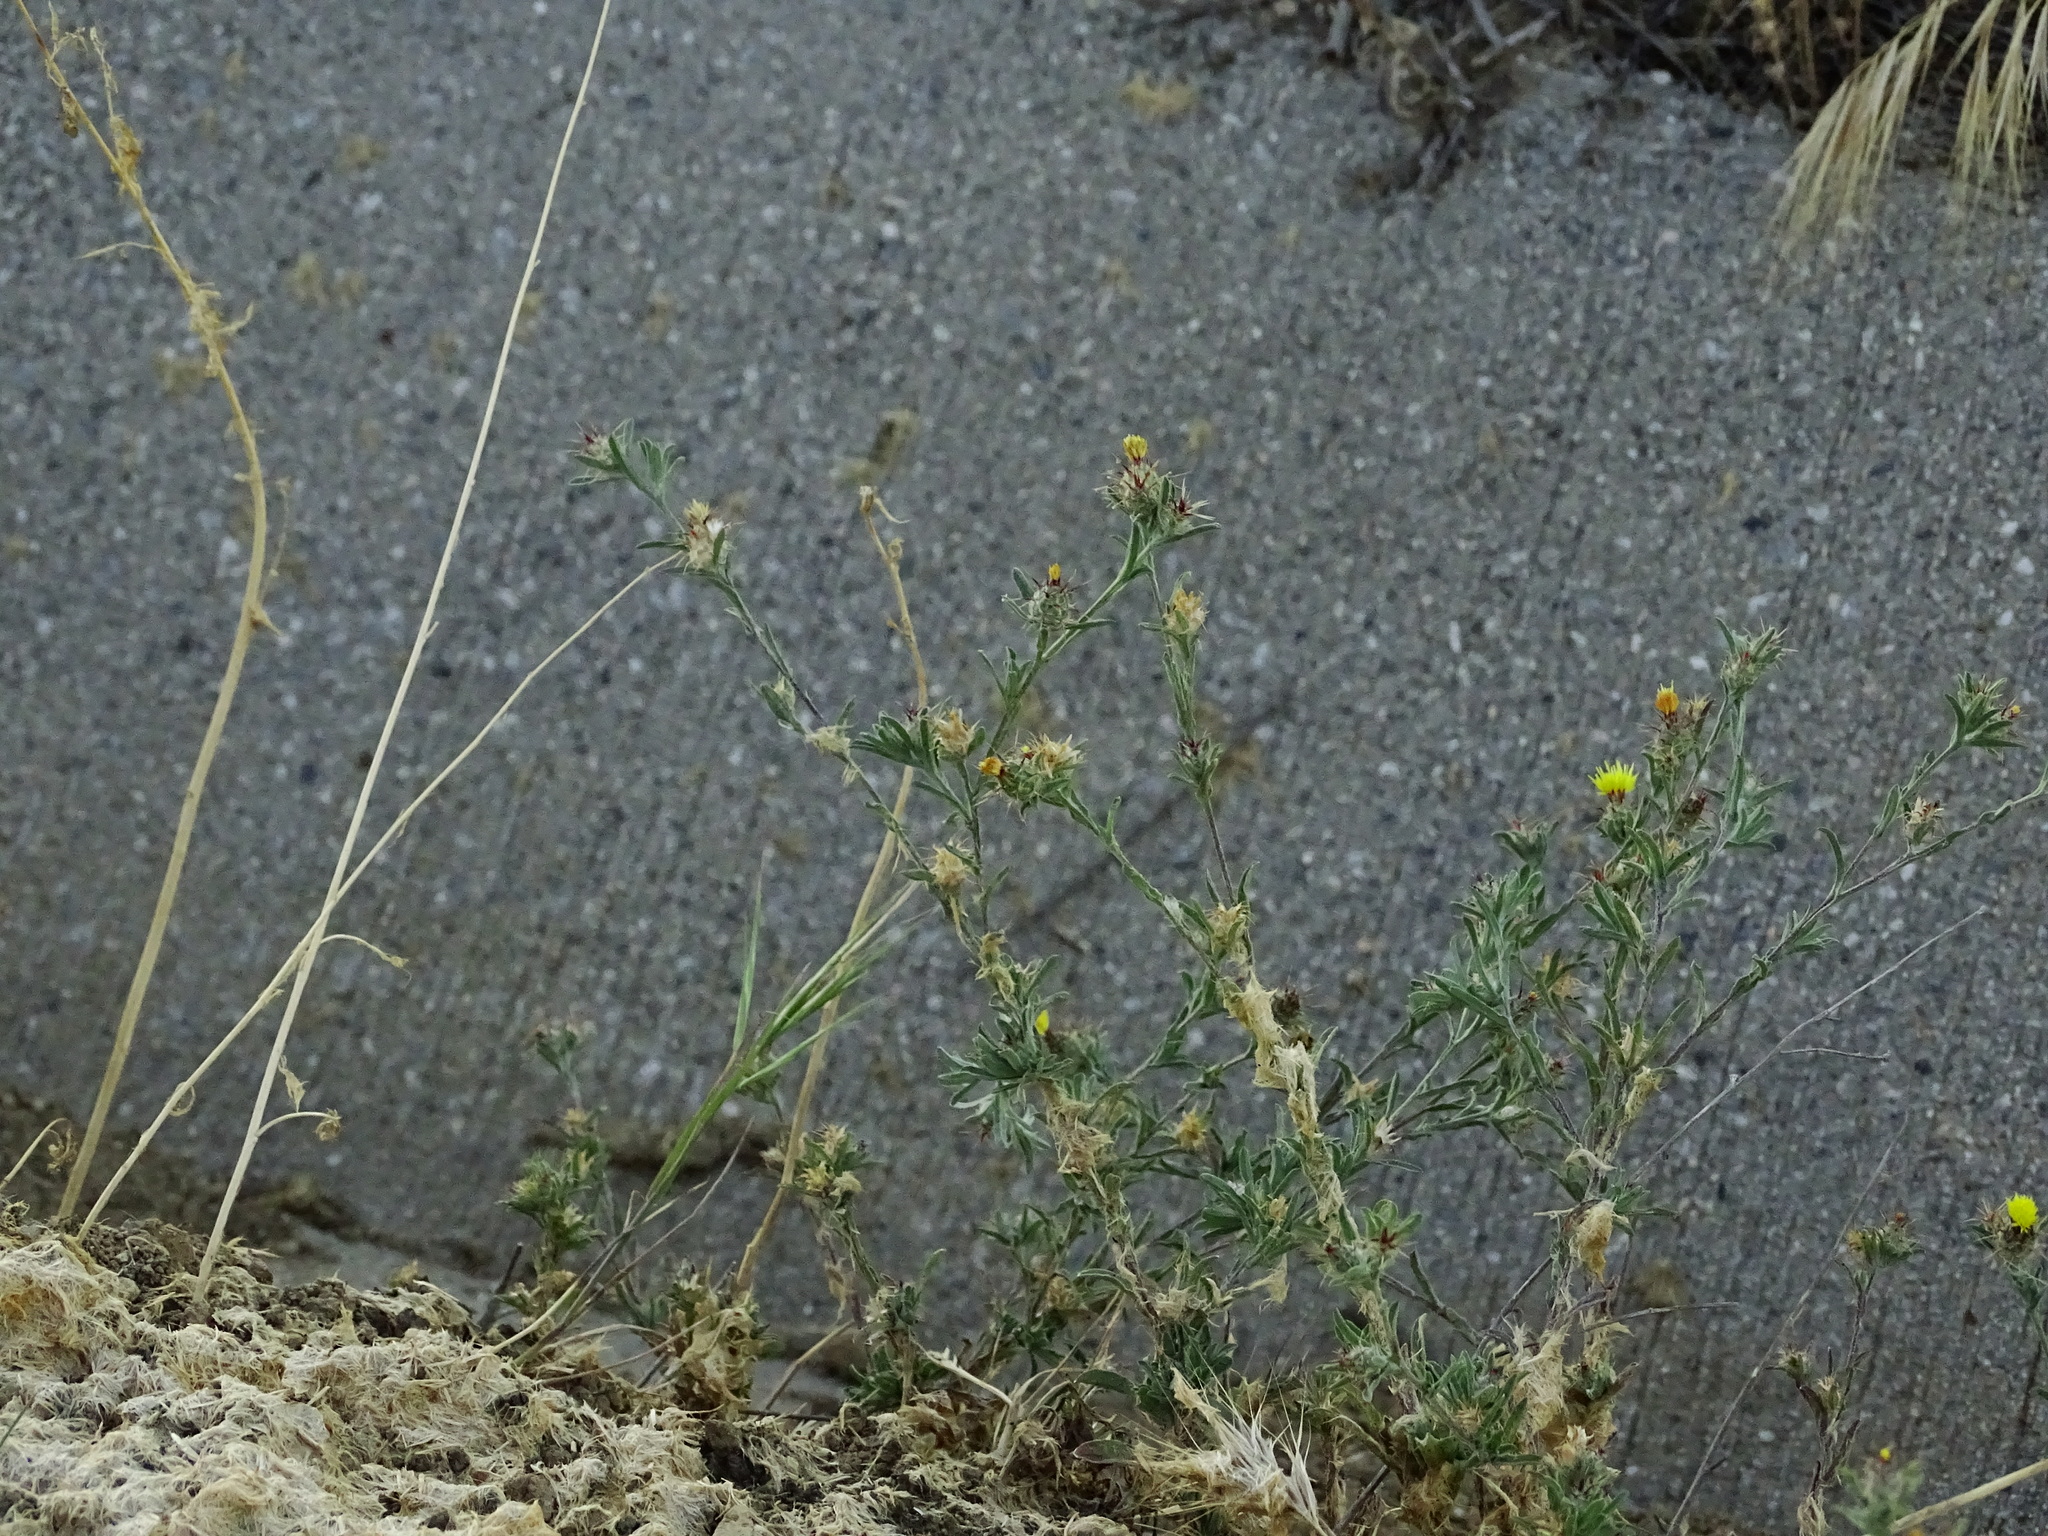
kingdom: Plantae
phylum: Tracheophyta
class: Magnoliopsida
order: Asterales
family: Asteraceae
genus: Centaurea
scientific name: Centaurea melitensis
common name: Maltese star-thistle
